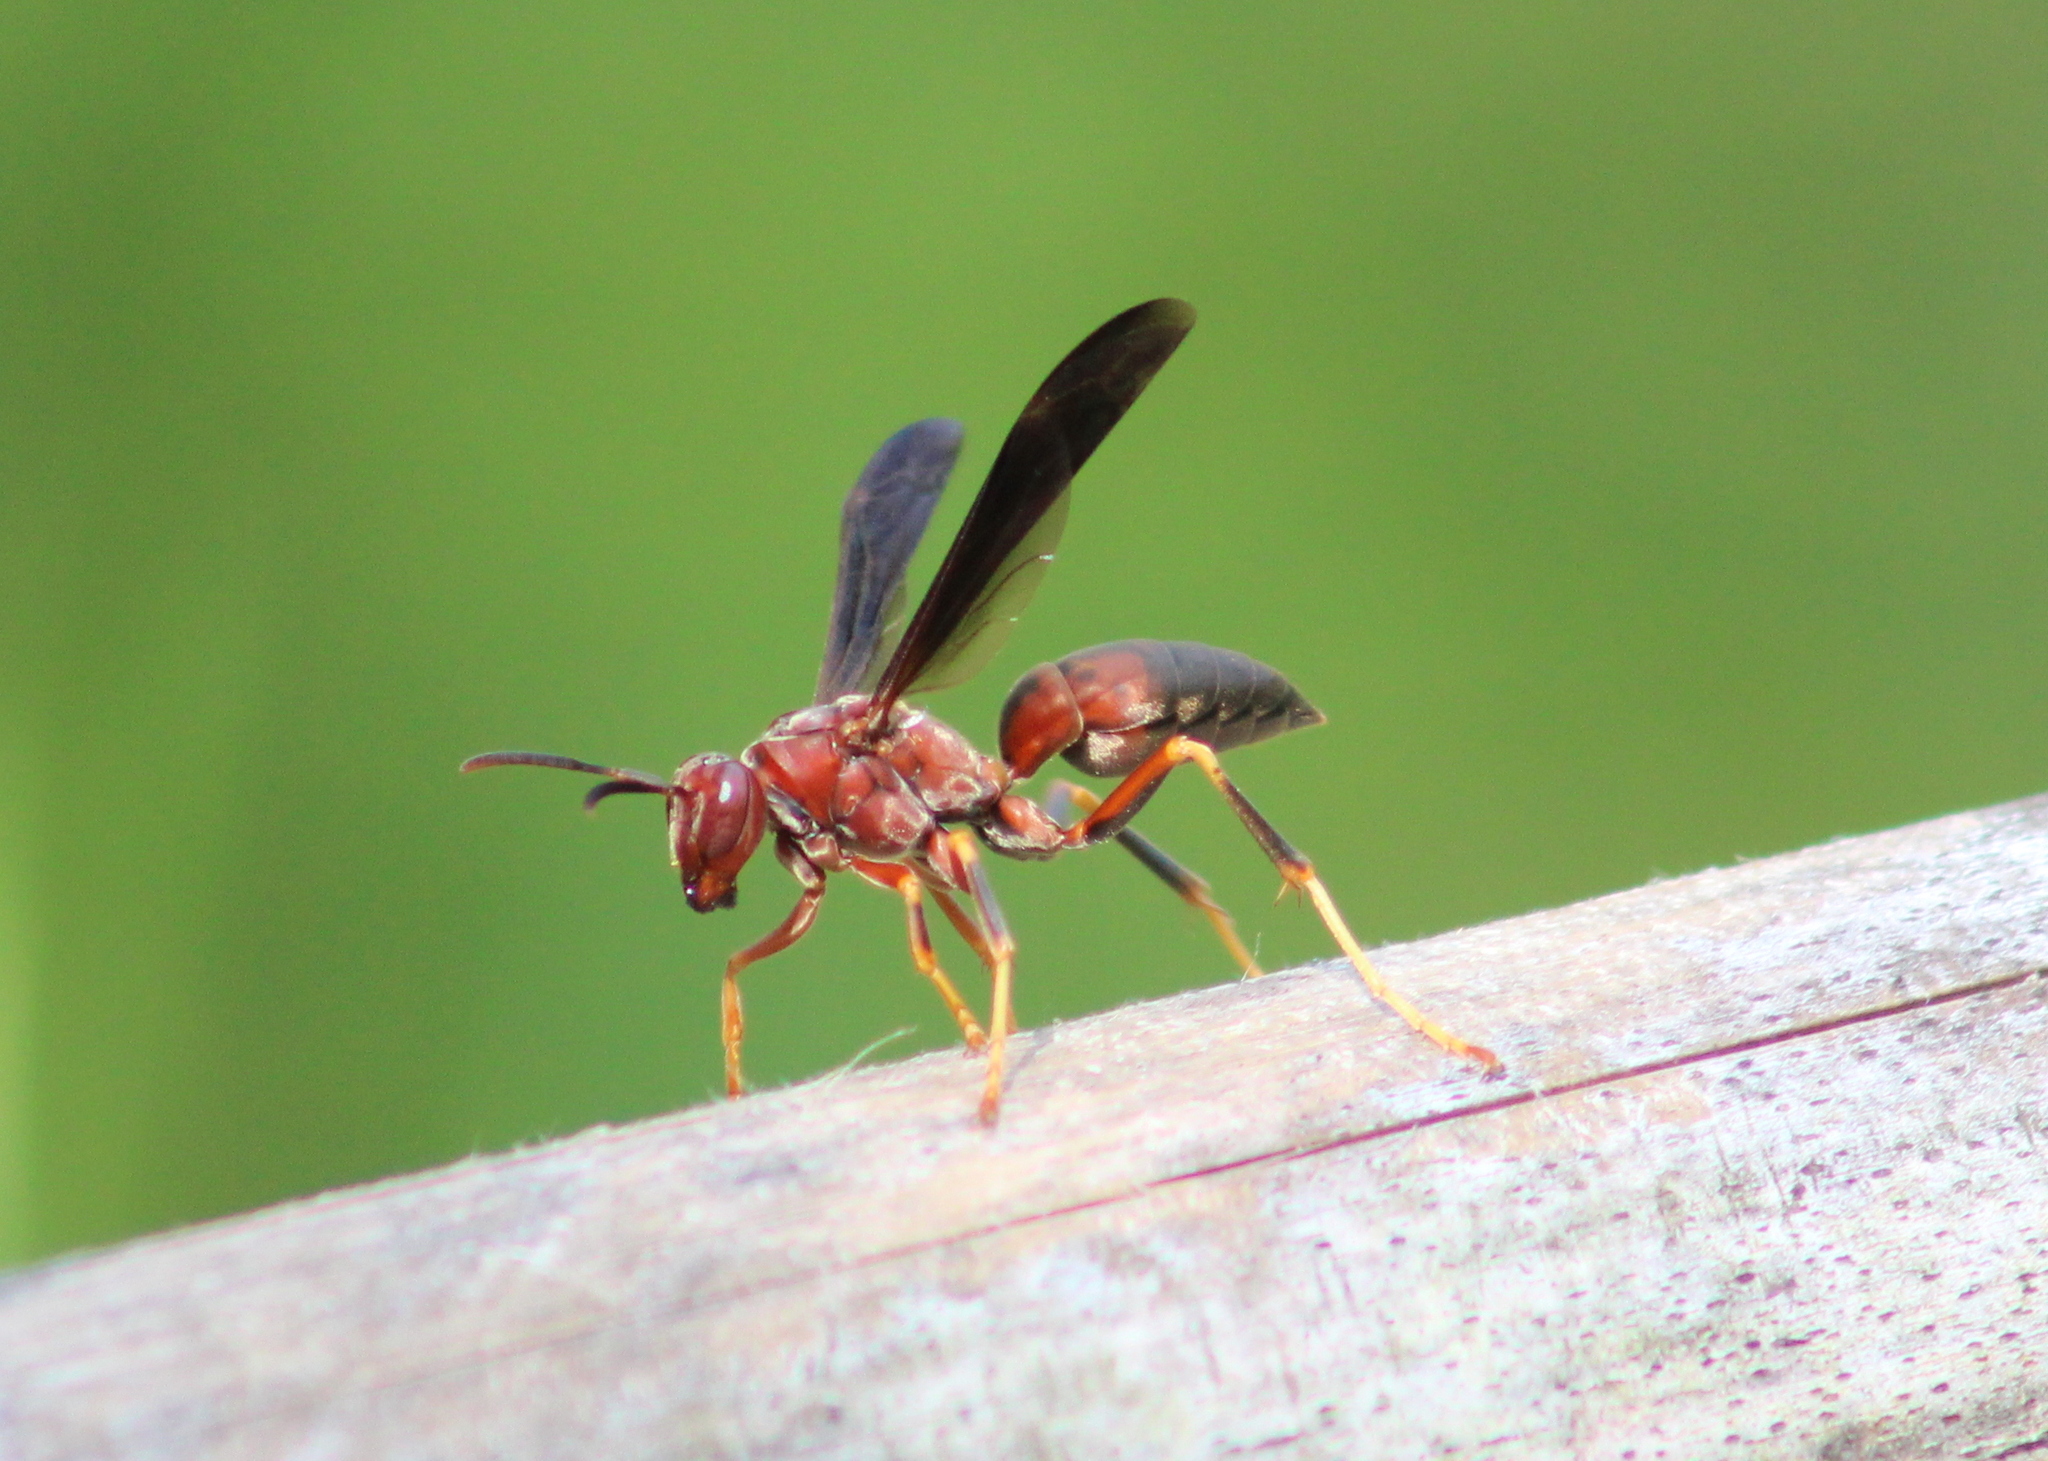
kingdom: Animalia
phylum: Arthropoda
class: Insecta
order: Hymenoptera
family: Eumenidae
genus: Polistes
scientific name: Polistes metricus
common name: Metric paper wasp
